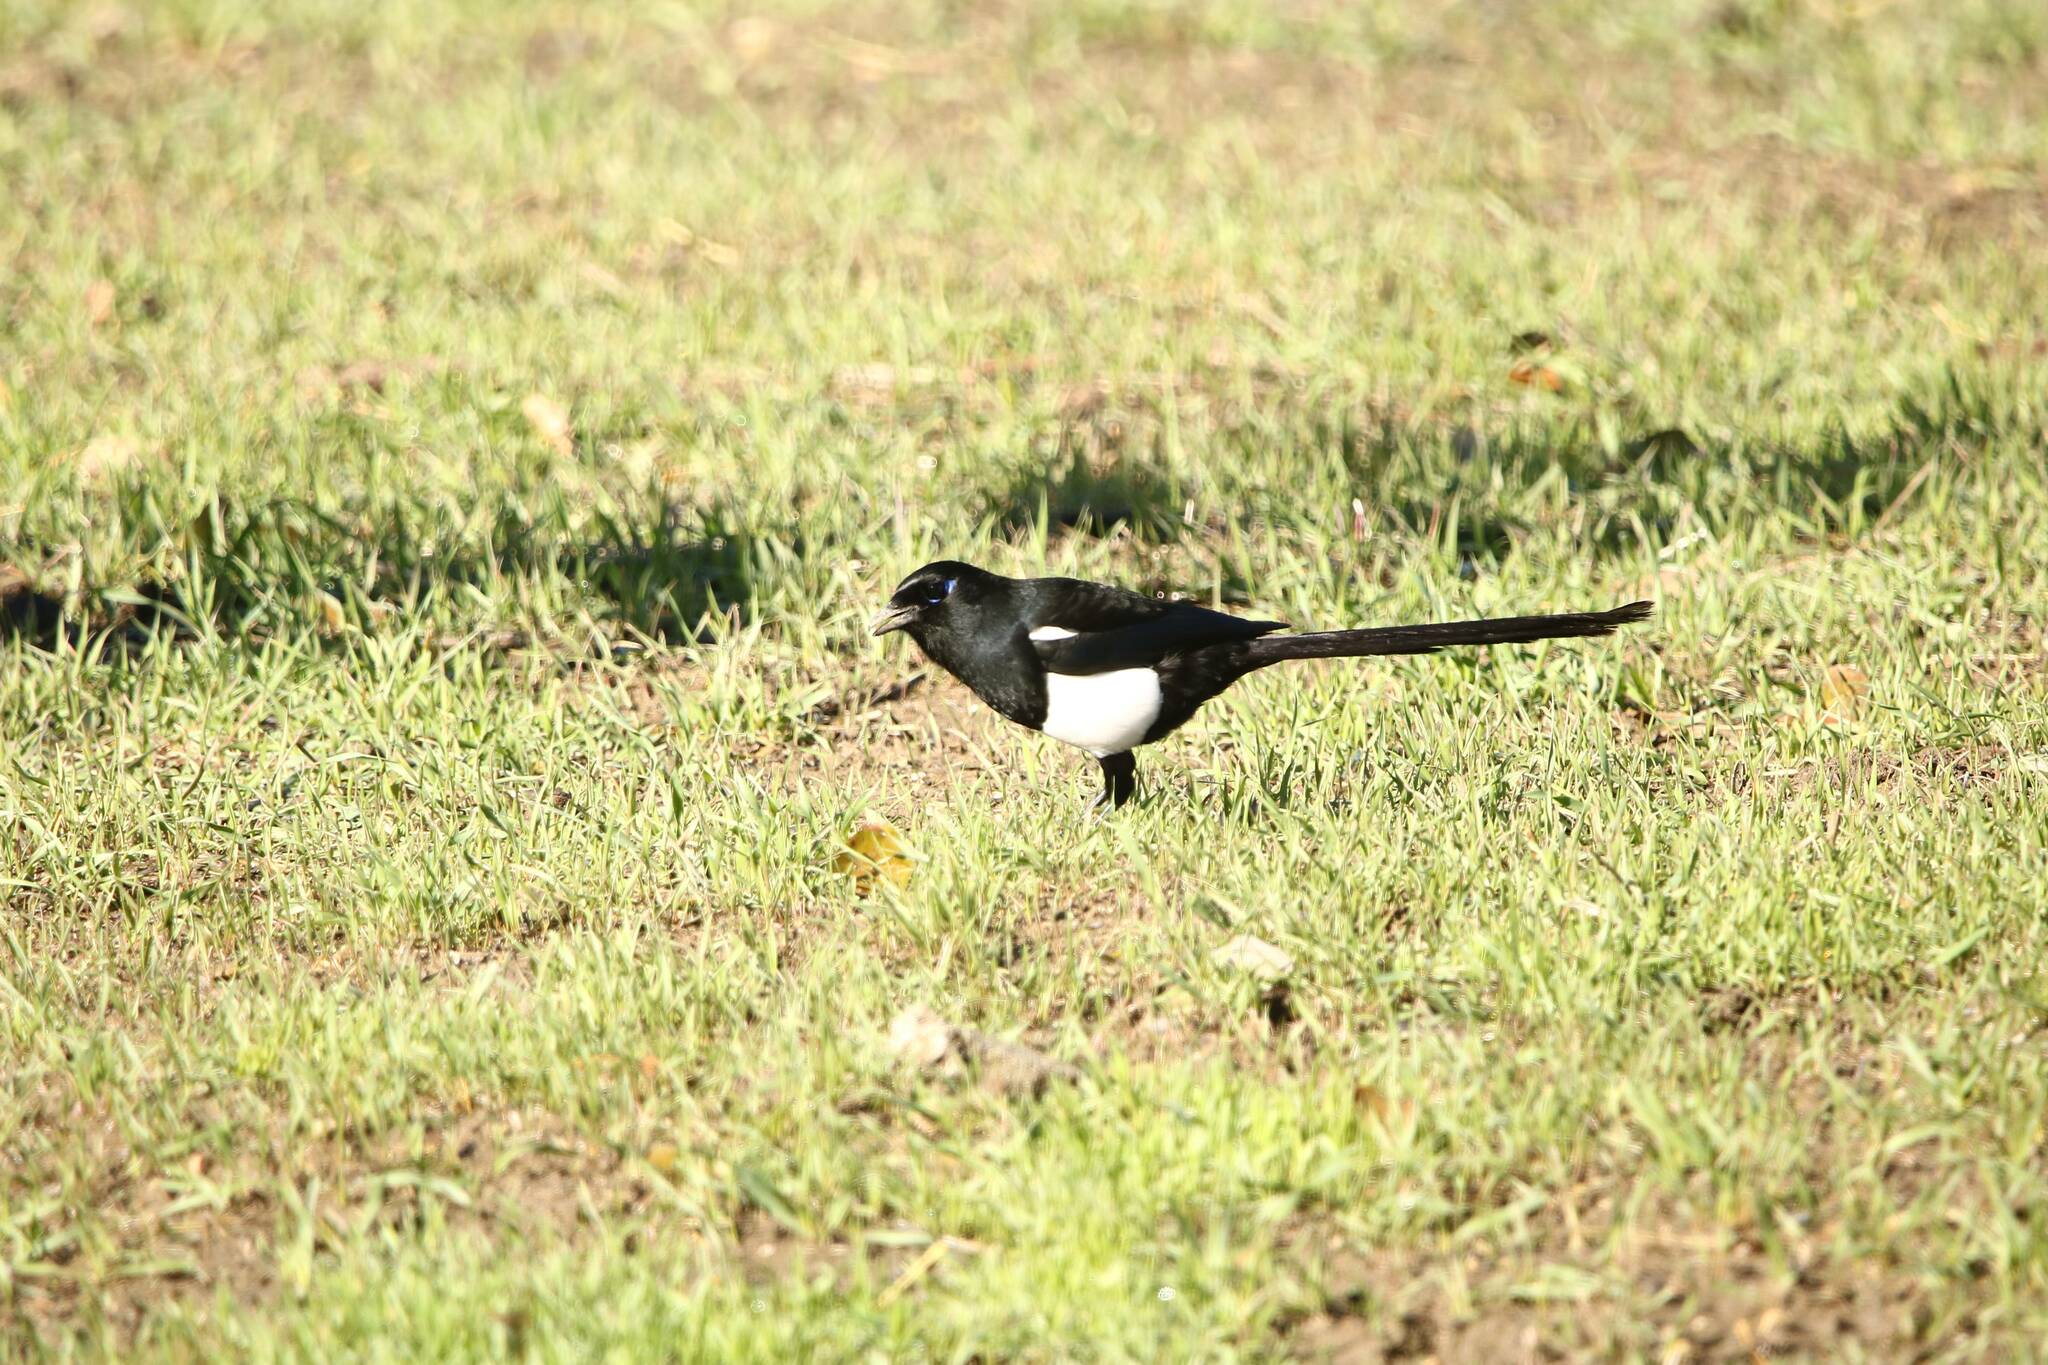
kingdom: Animalia
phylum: Chordata
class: Aves
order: Passeriformes
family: Corvidae
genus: Pica
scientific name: Pica mauritanica
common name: Maghreb magpie
